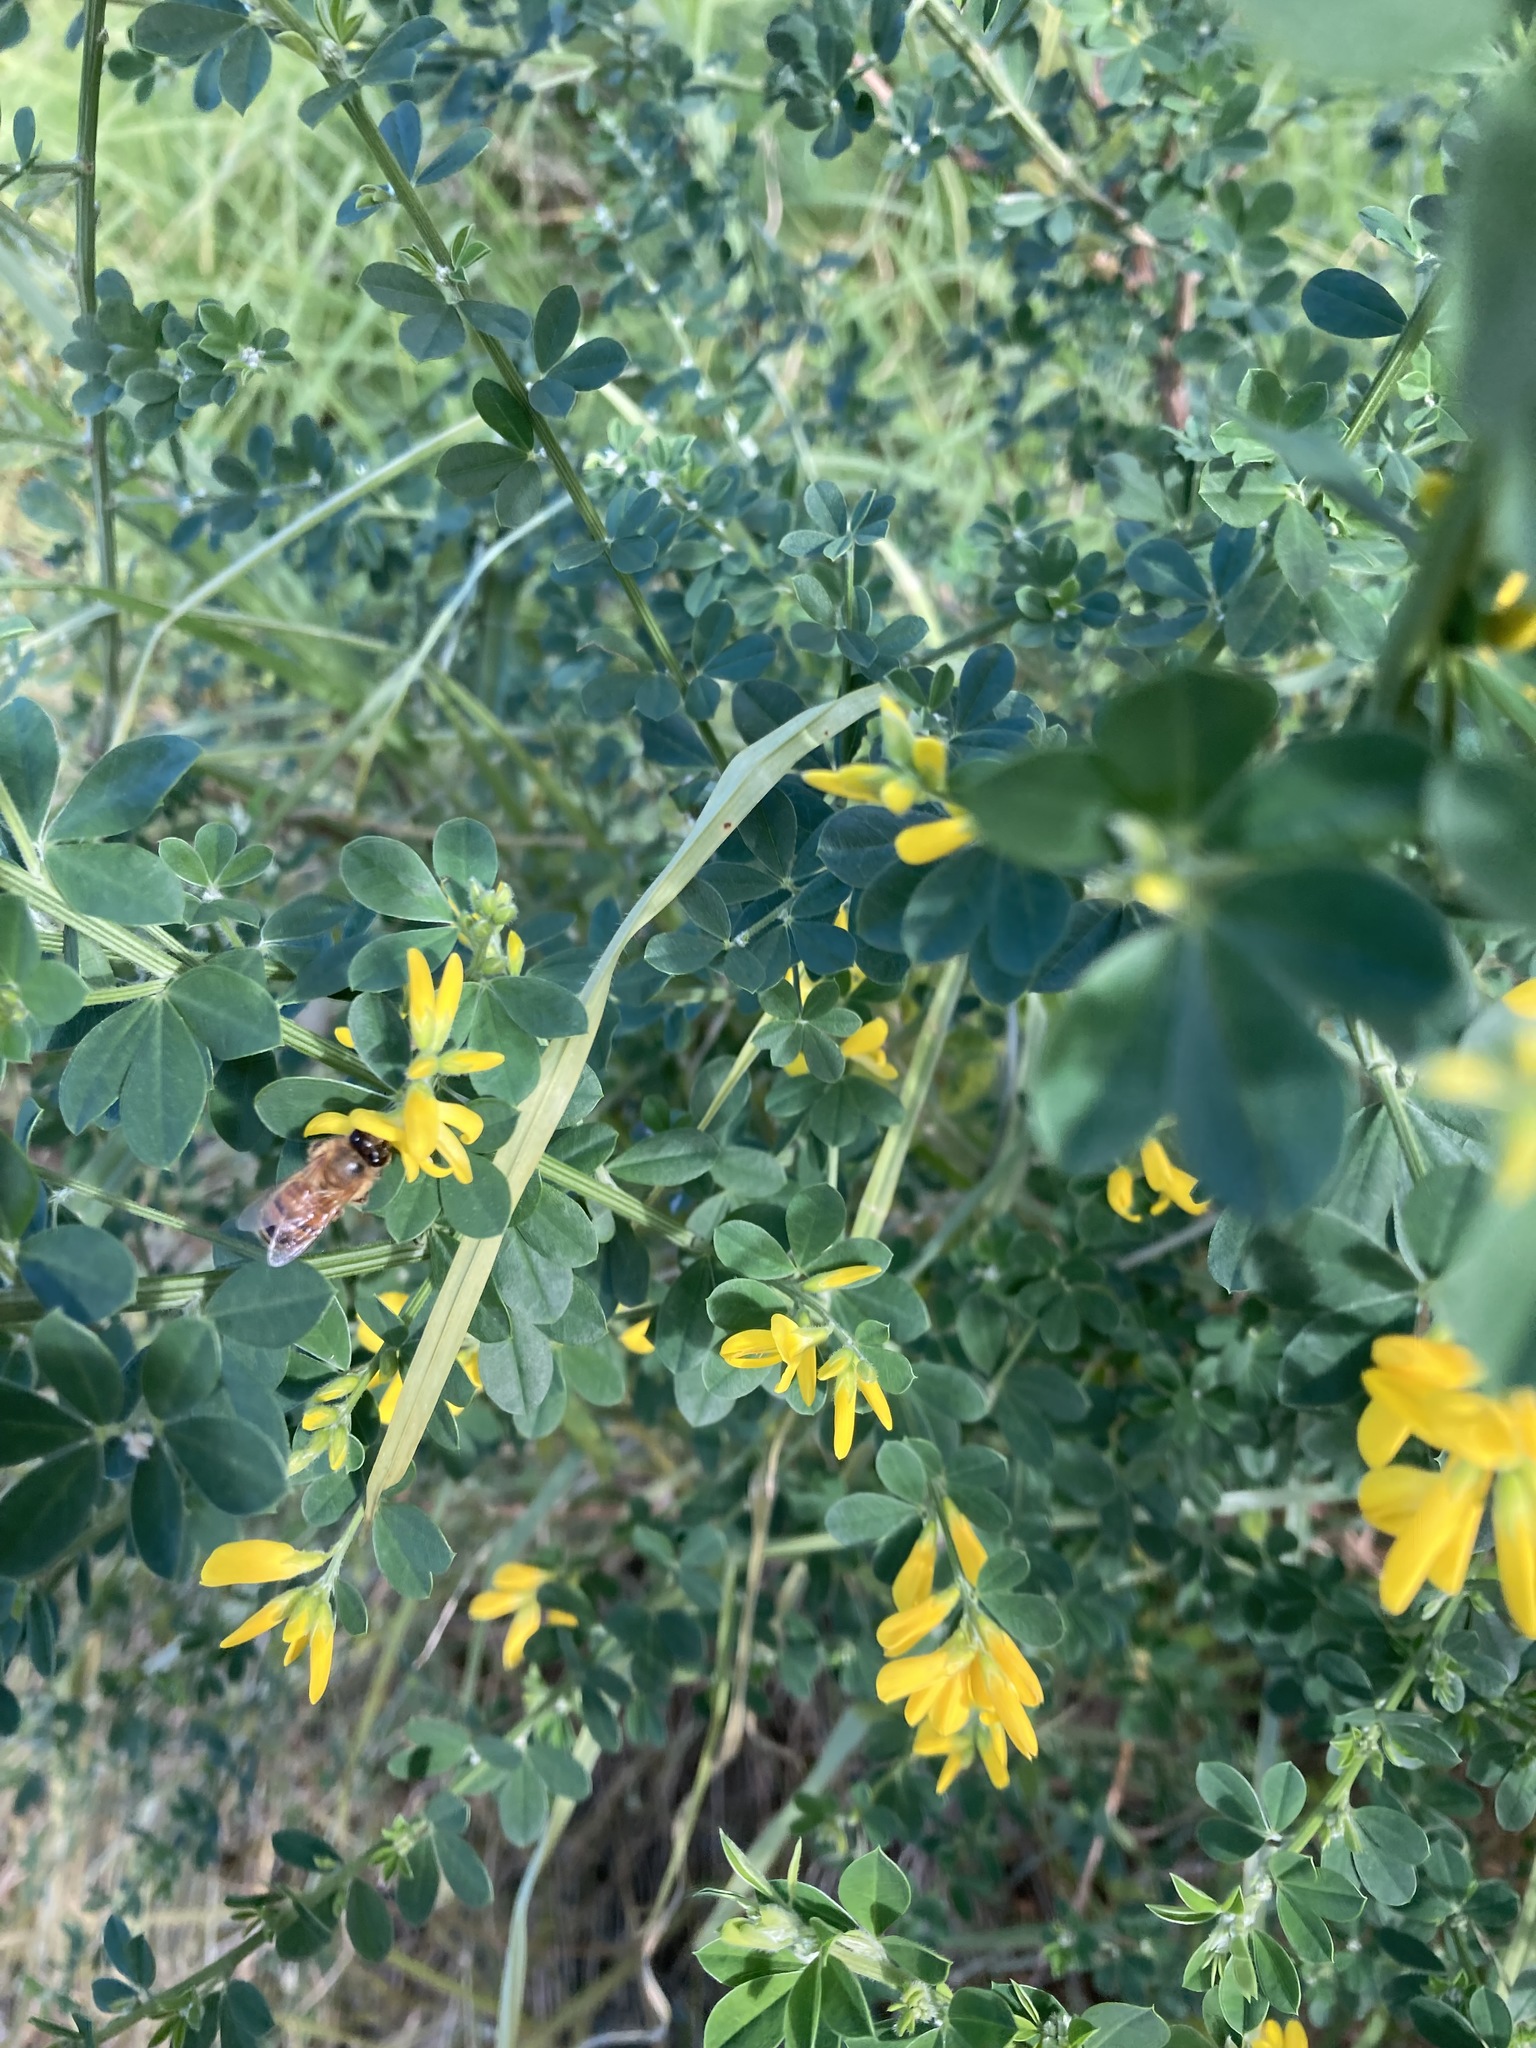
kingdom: Animalia
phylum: Arthropoda
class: Insecta
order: Hymenoptera
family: Apidae
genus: Apis
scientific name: Apis mellifera
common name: Honey bee
